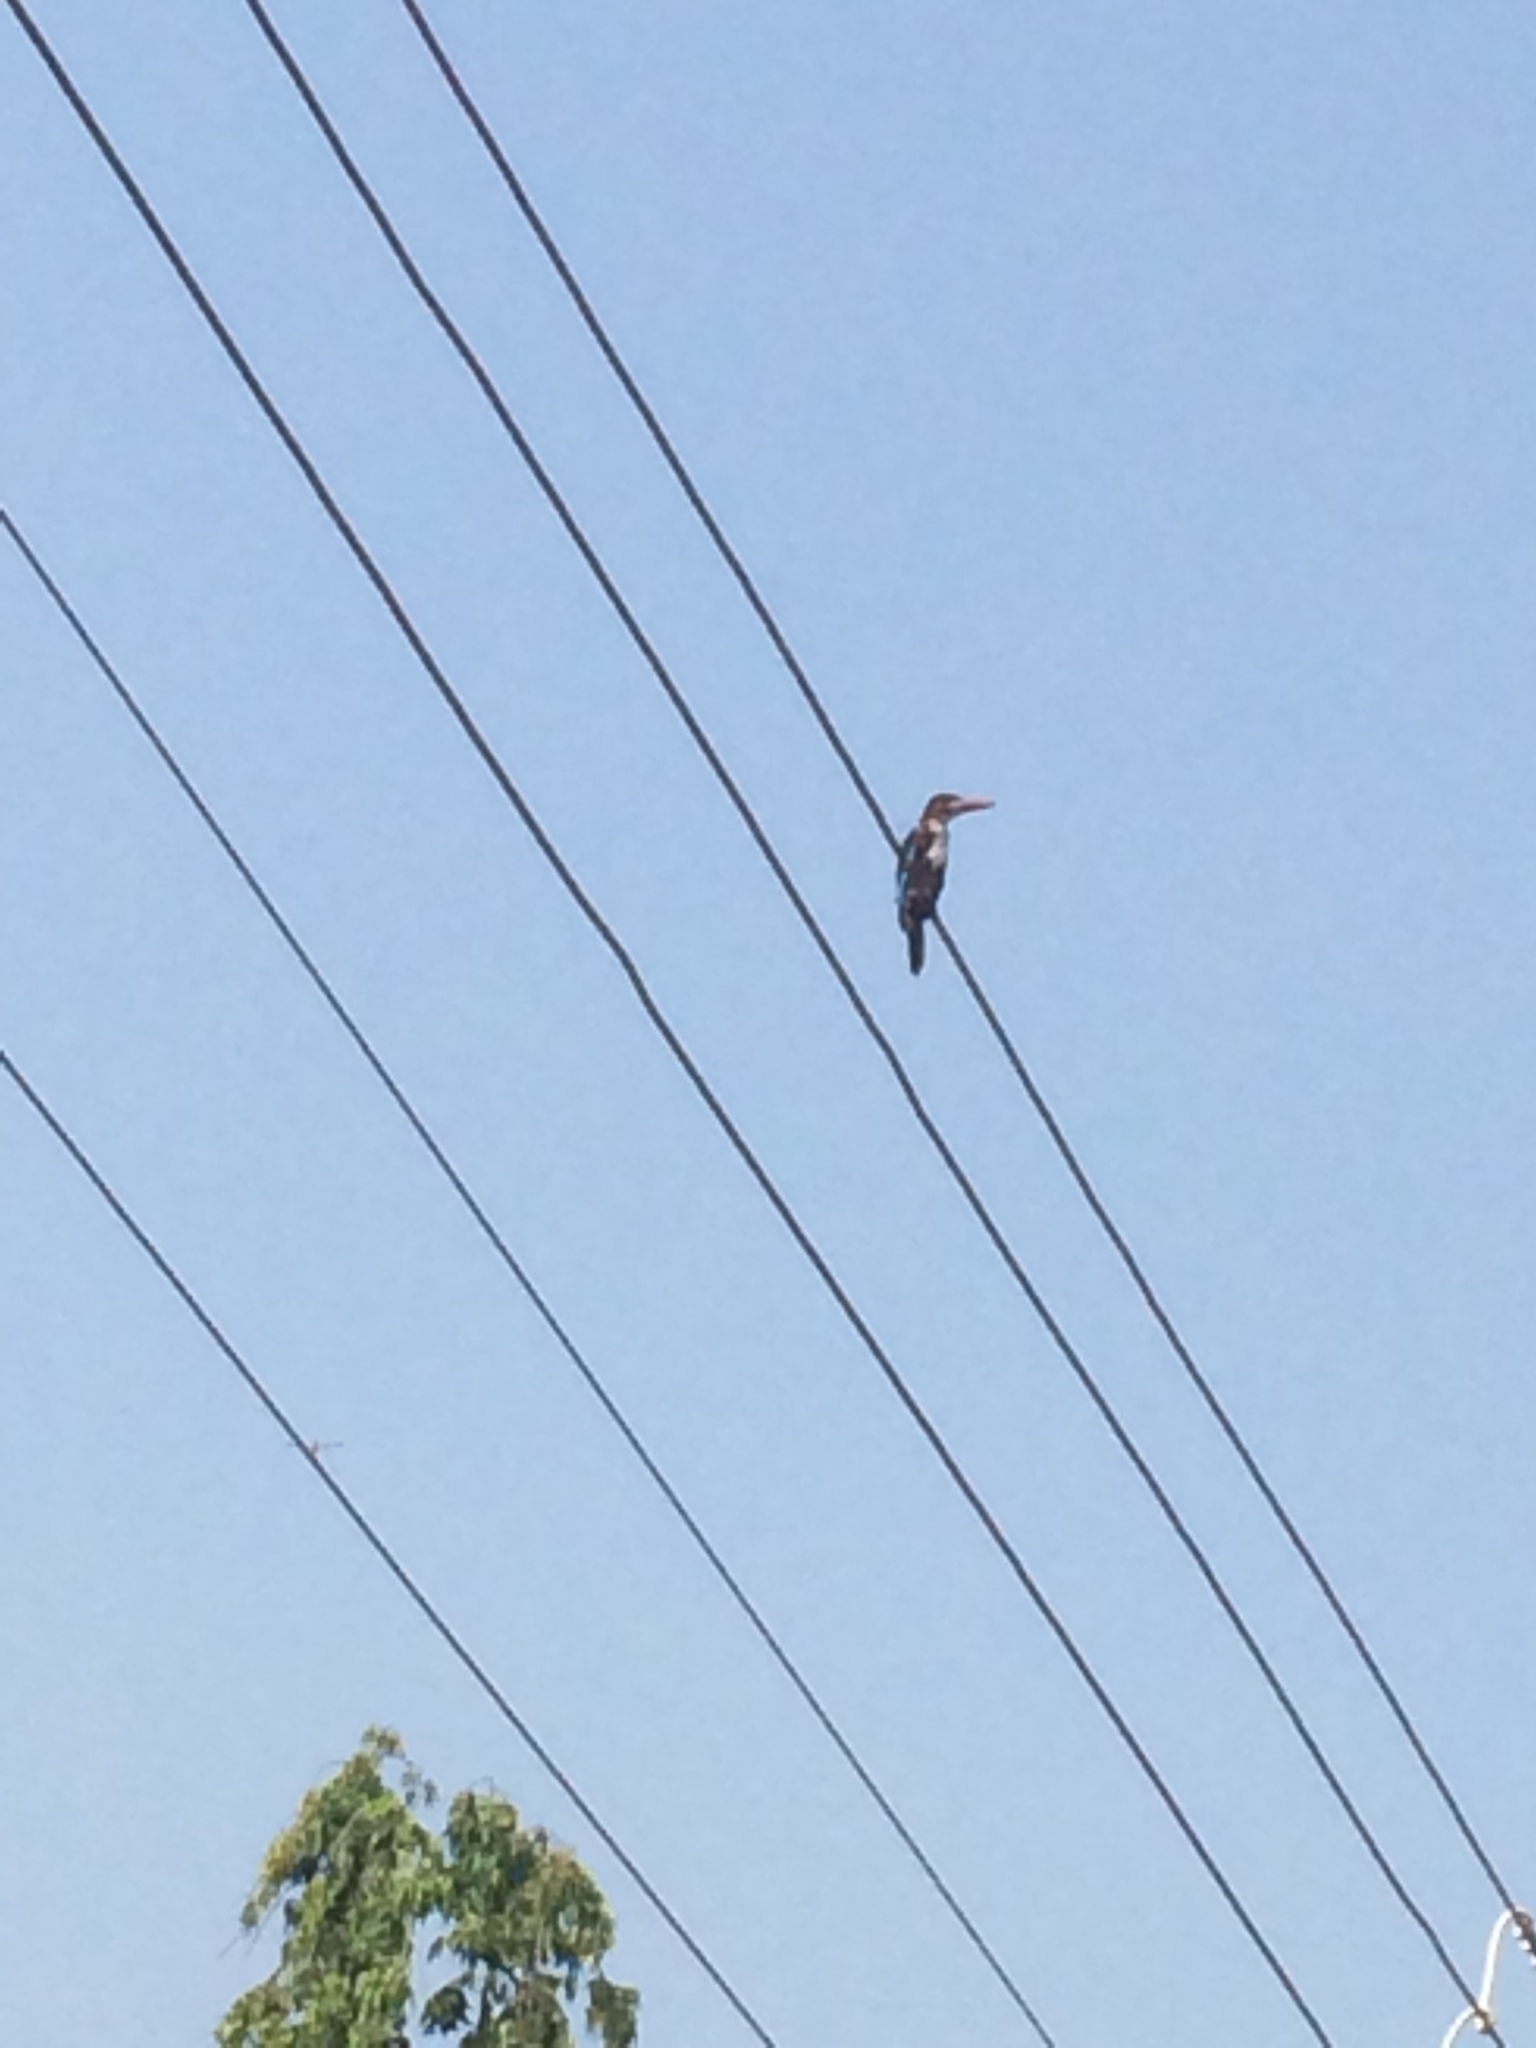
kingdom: Animalia
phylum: Chordata
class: Aves
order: Coraciiformes
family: Alcedinidae
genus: Halcyon
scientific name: Halcyon smyrnensis
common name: White-throated kingfisher
